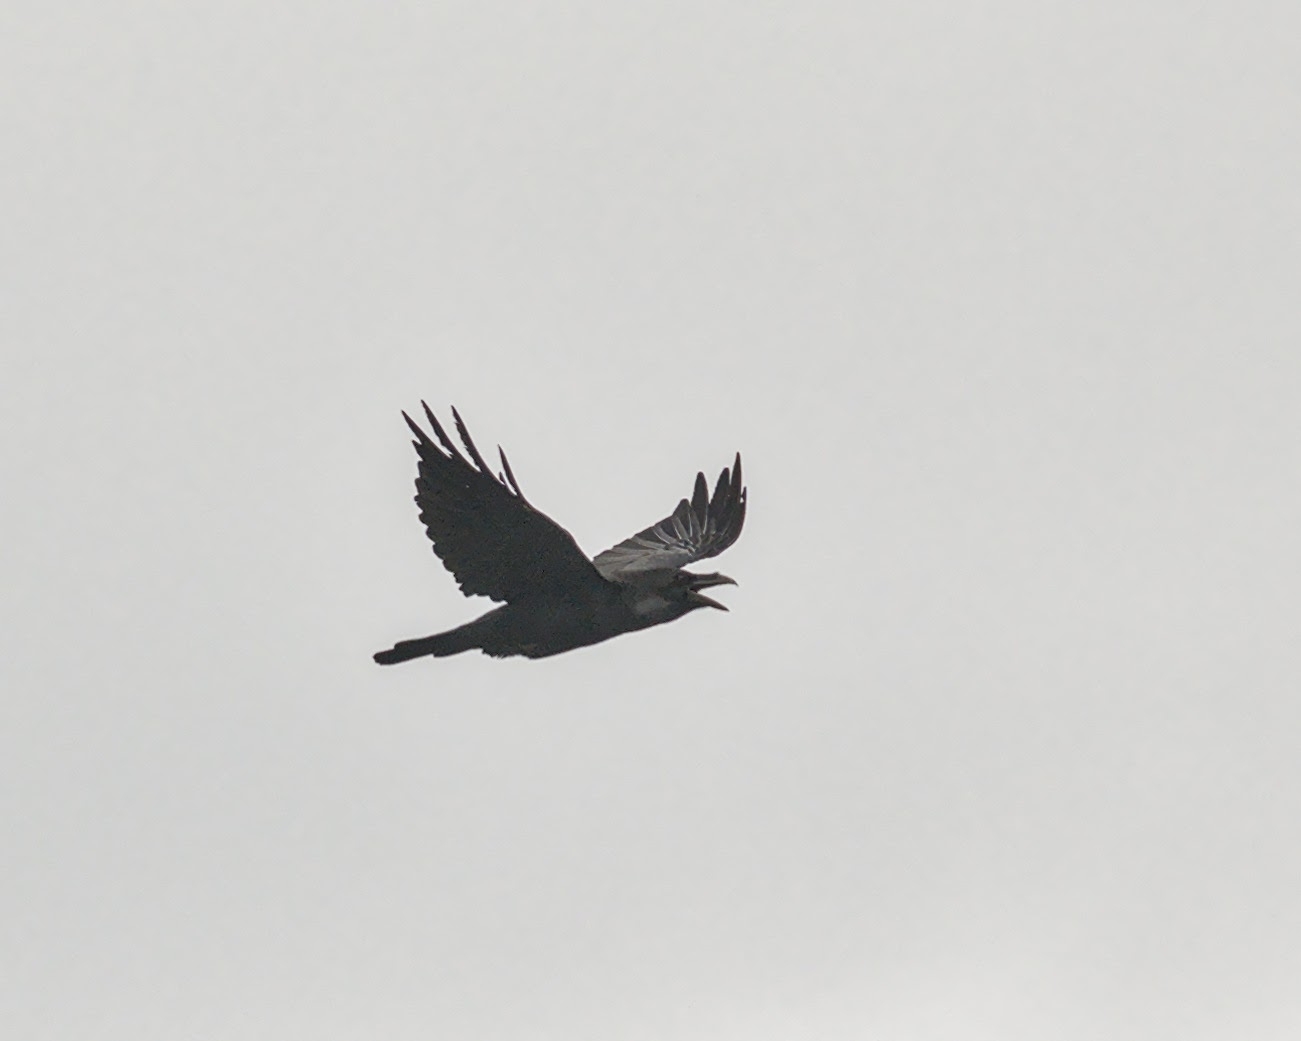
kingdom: Animalia
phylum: Chordata
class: Aves
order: Passeriformes
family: Corvidae
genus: Corvus
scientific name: Corvus corax
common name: Common raven
